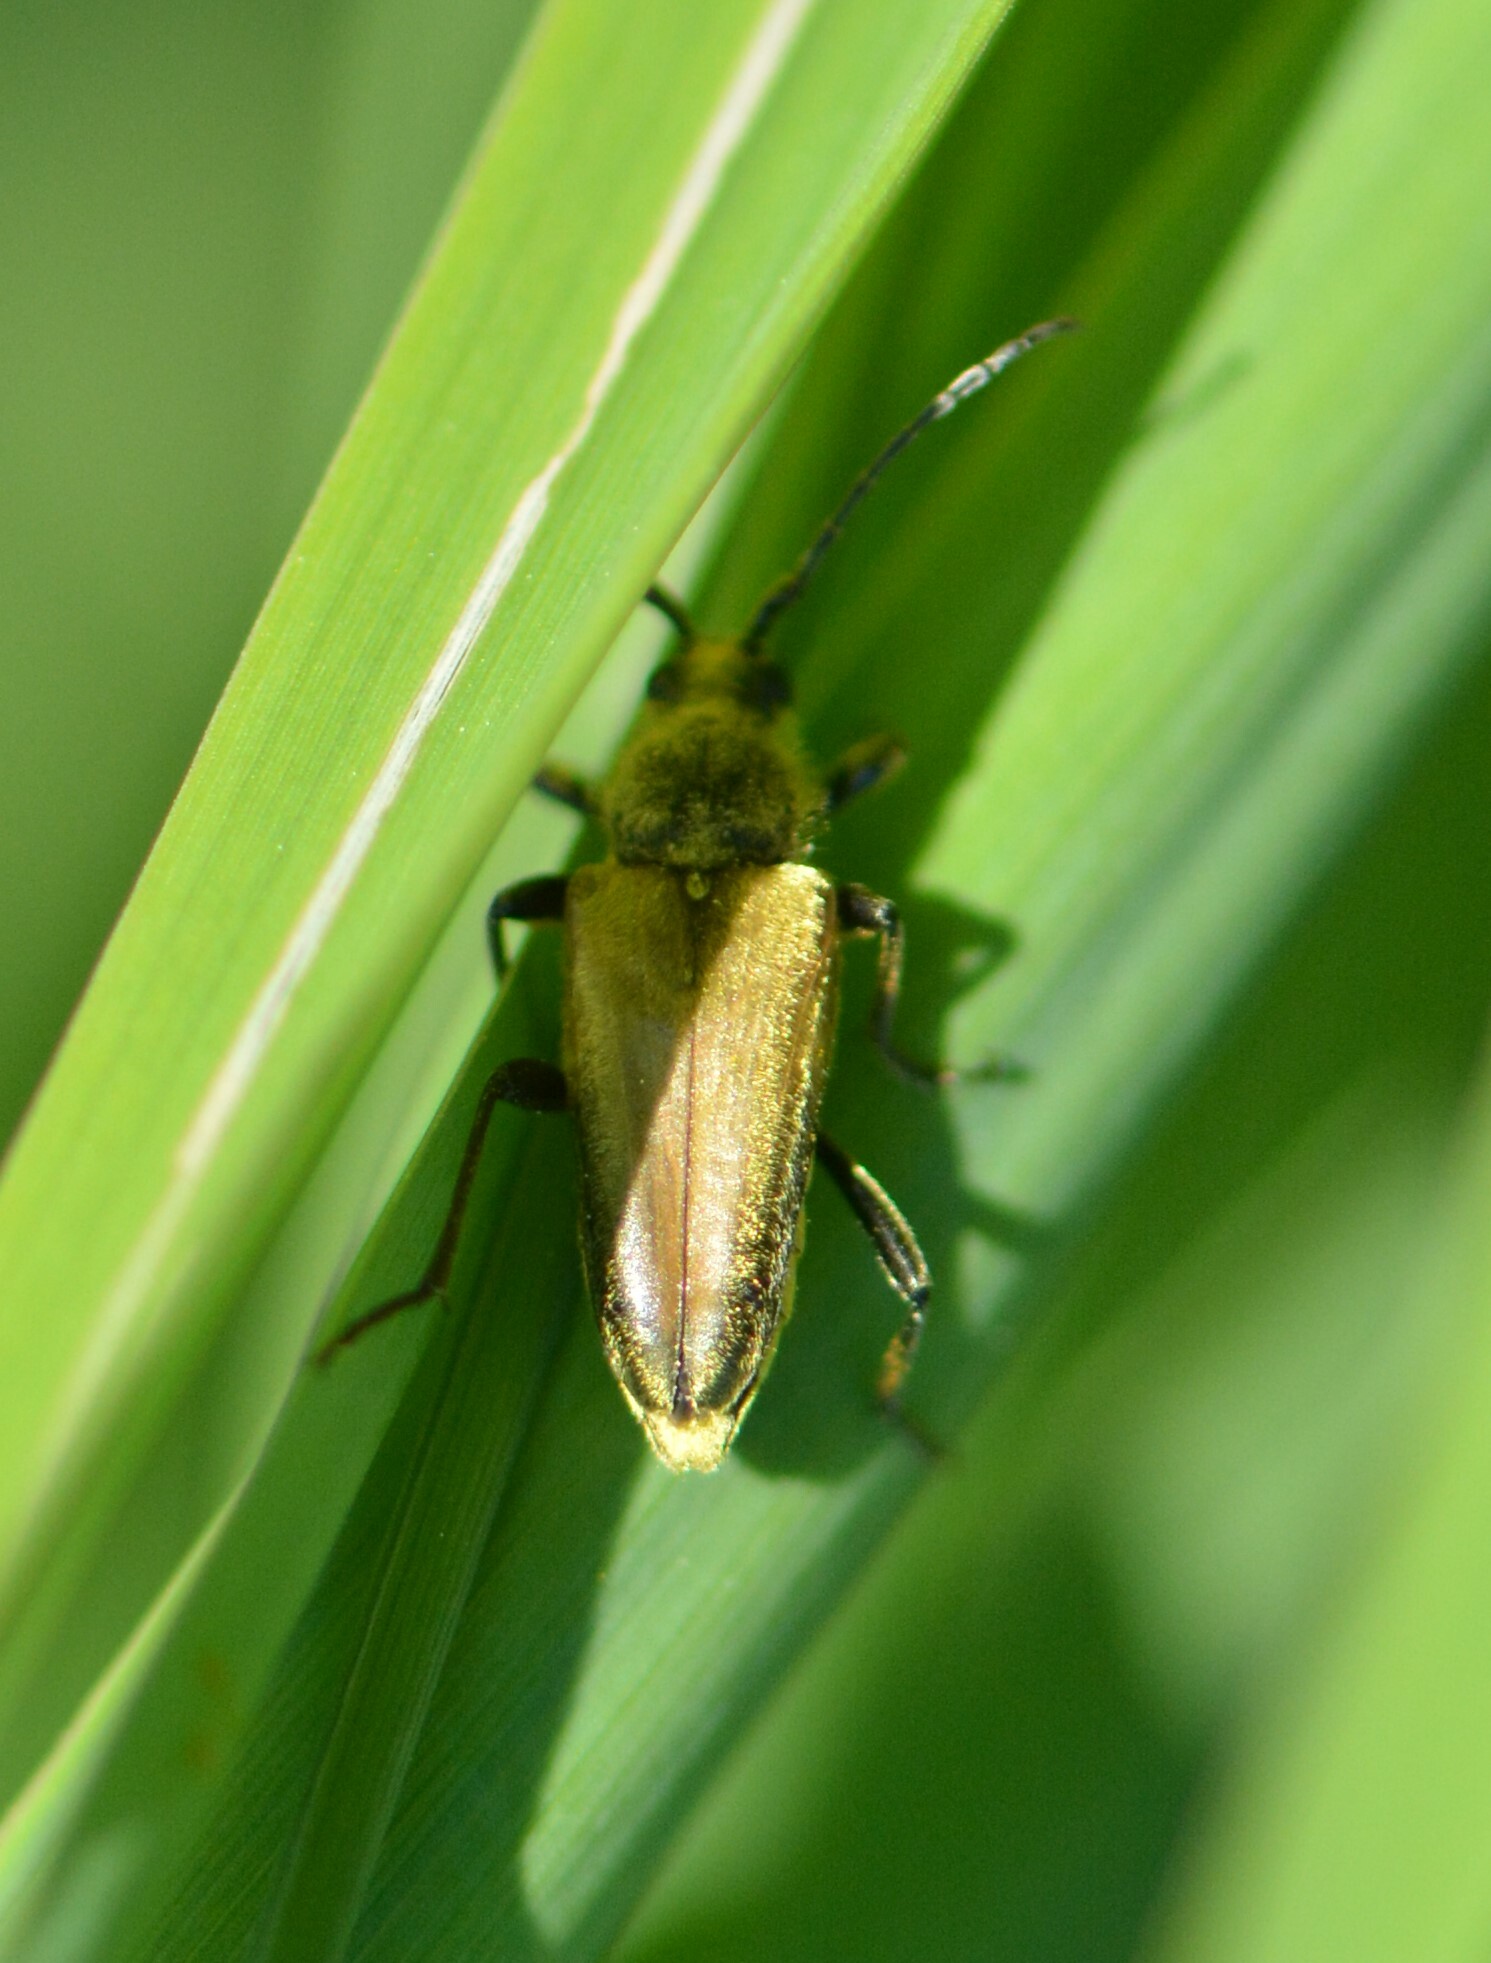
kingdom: Animalia
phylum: Arthropoda
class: Insecta
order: Coleoptera
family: Cerambycidae
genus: Cosmosalia
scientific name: Cosmosalia chrysocoma
